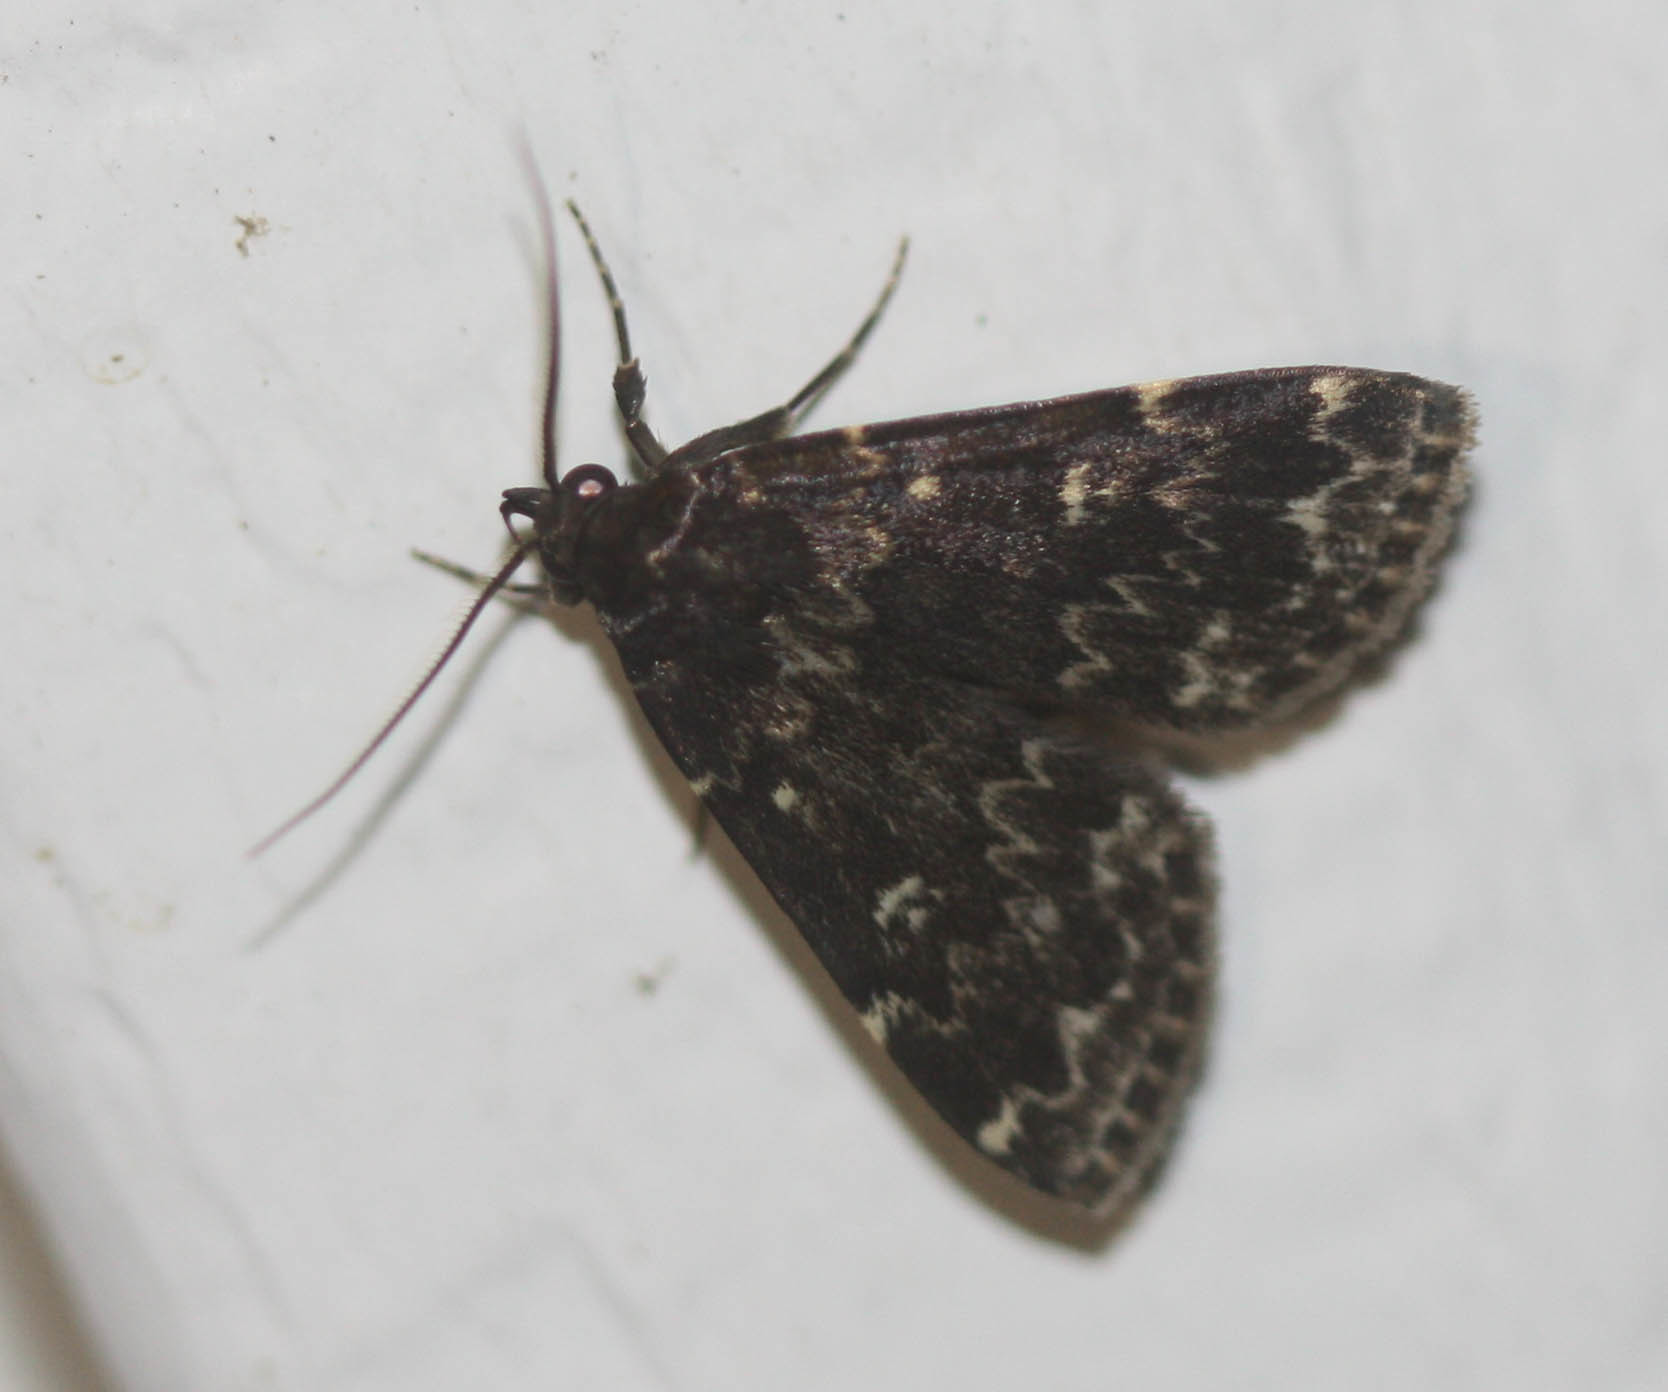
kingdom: Animalia
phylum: Arthropoda
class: Insecta
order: Lepidoptera
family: Erebidae
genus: Idia
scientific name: Idia lubricalis
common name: Twin-striped tabby
